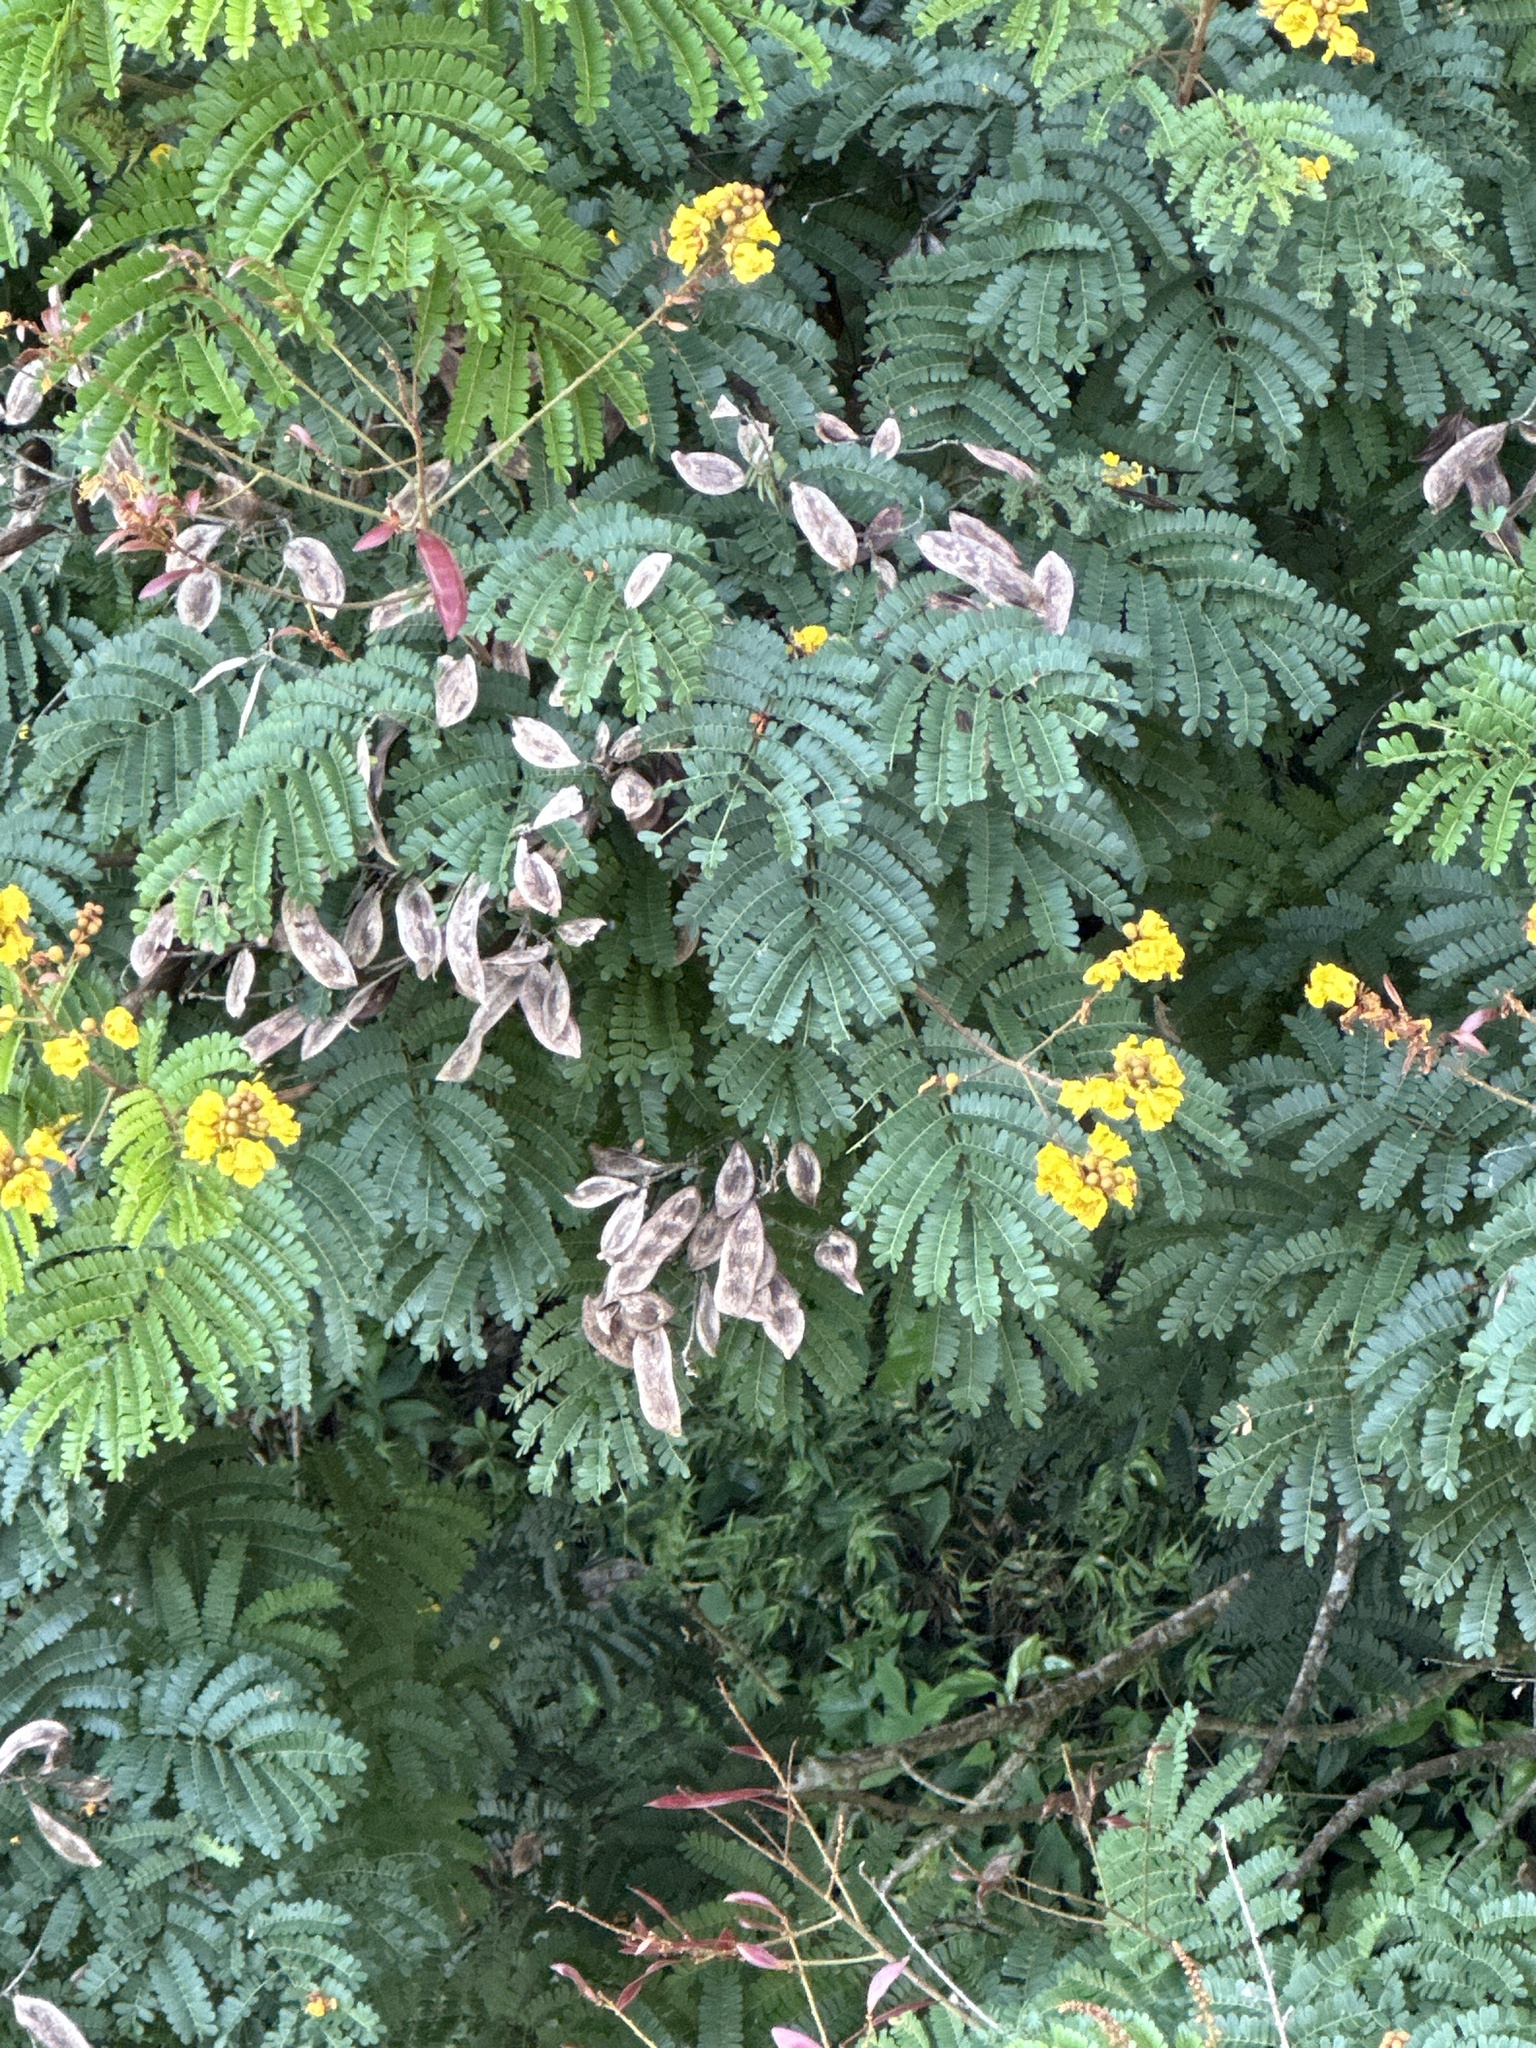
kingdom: Plantae
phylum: Tracheophyta
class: Magnoliopsida
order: Fabales
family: Fabaceae
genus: Peltophorum
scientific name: Peltophorum pterocarpum
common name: Yellow flame
